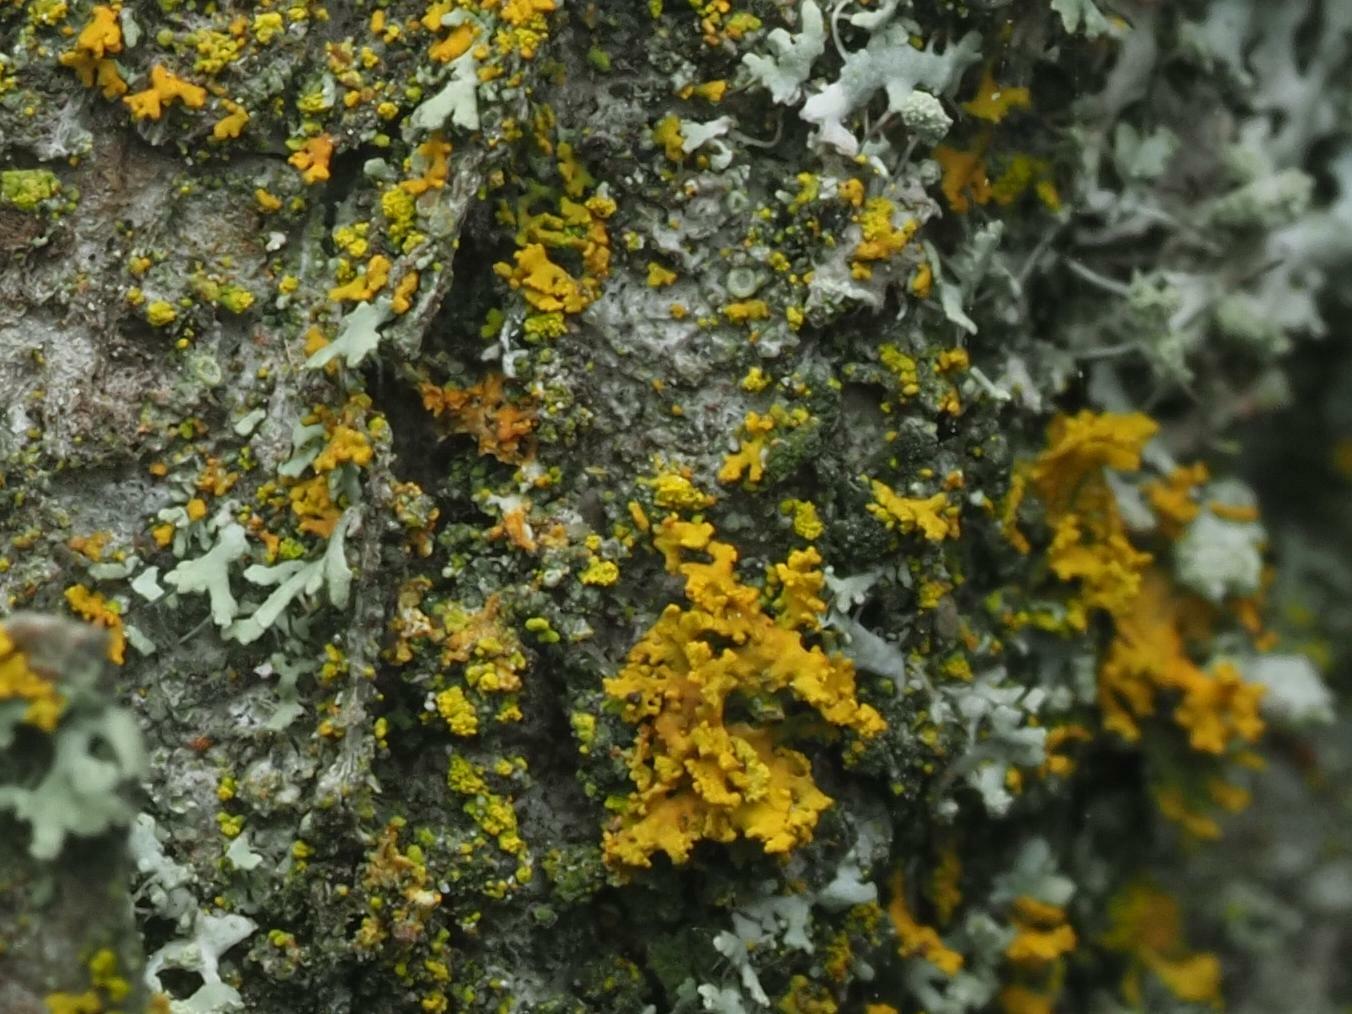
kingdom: Fungi
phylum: Ascomycota
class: Lecanoromycetes
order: Teloschistales
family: Teloschistaceae
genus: Polycauliona
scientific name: Polycauliona candelaria
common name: Shrubby sunburst lichen
